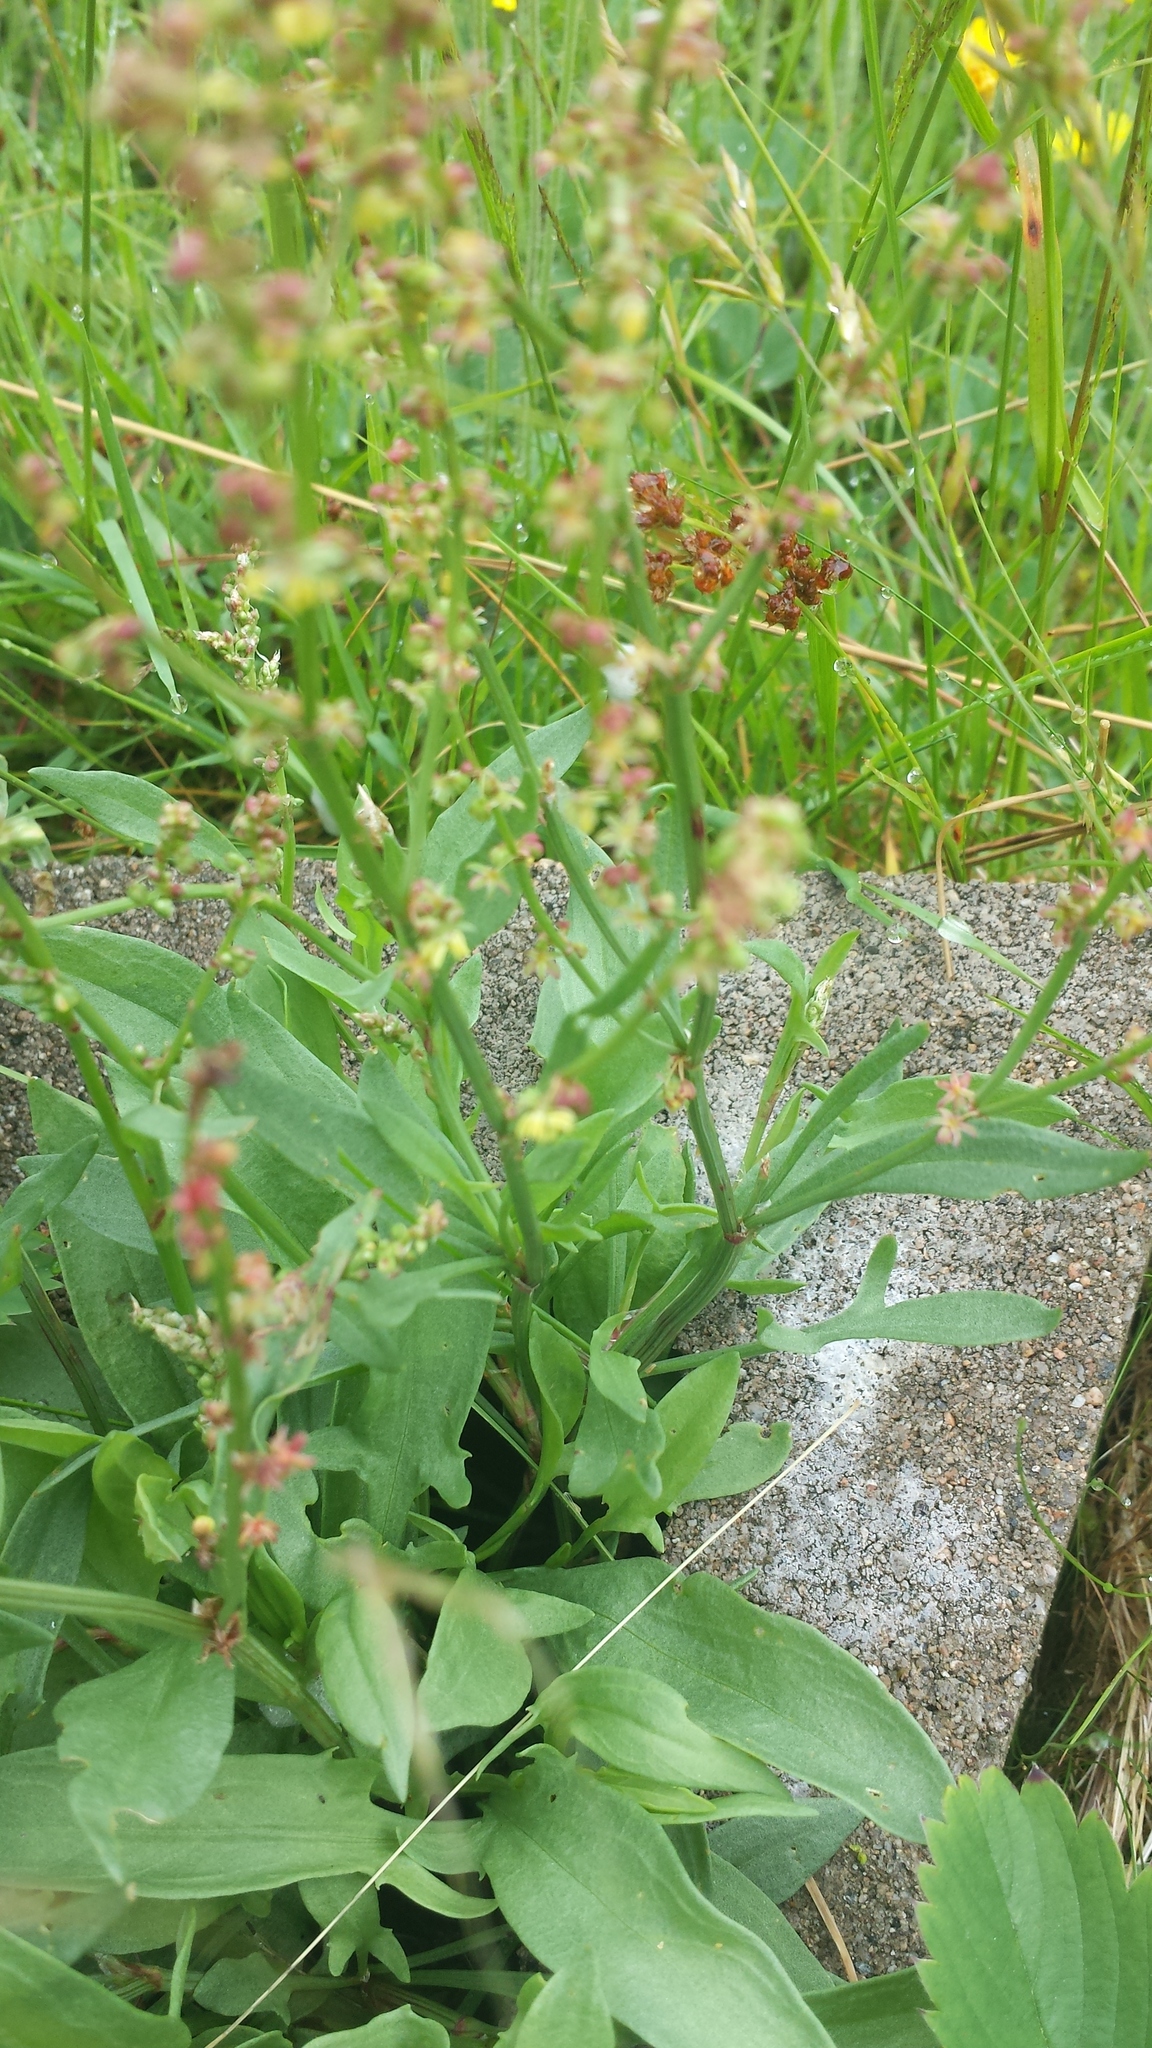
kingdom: Plantae
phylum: Tracheophyta
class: Magnoliopsida
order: Caryophyllales
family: Polygonaceae
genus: Rumex
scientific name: Rumex acetosella
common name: Common sheep sorrel
